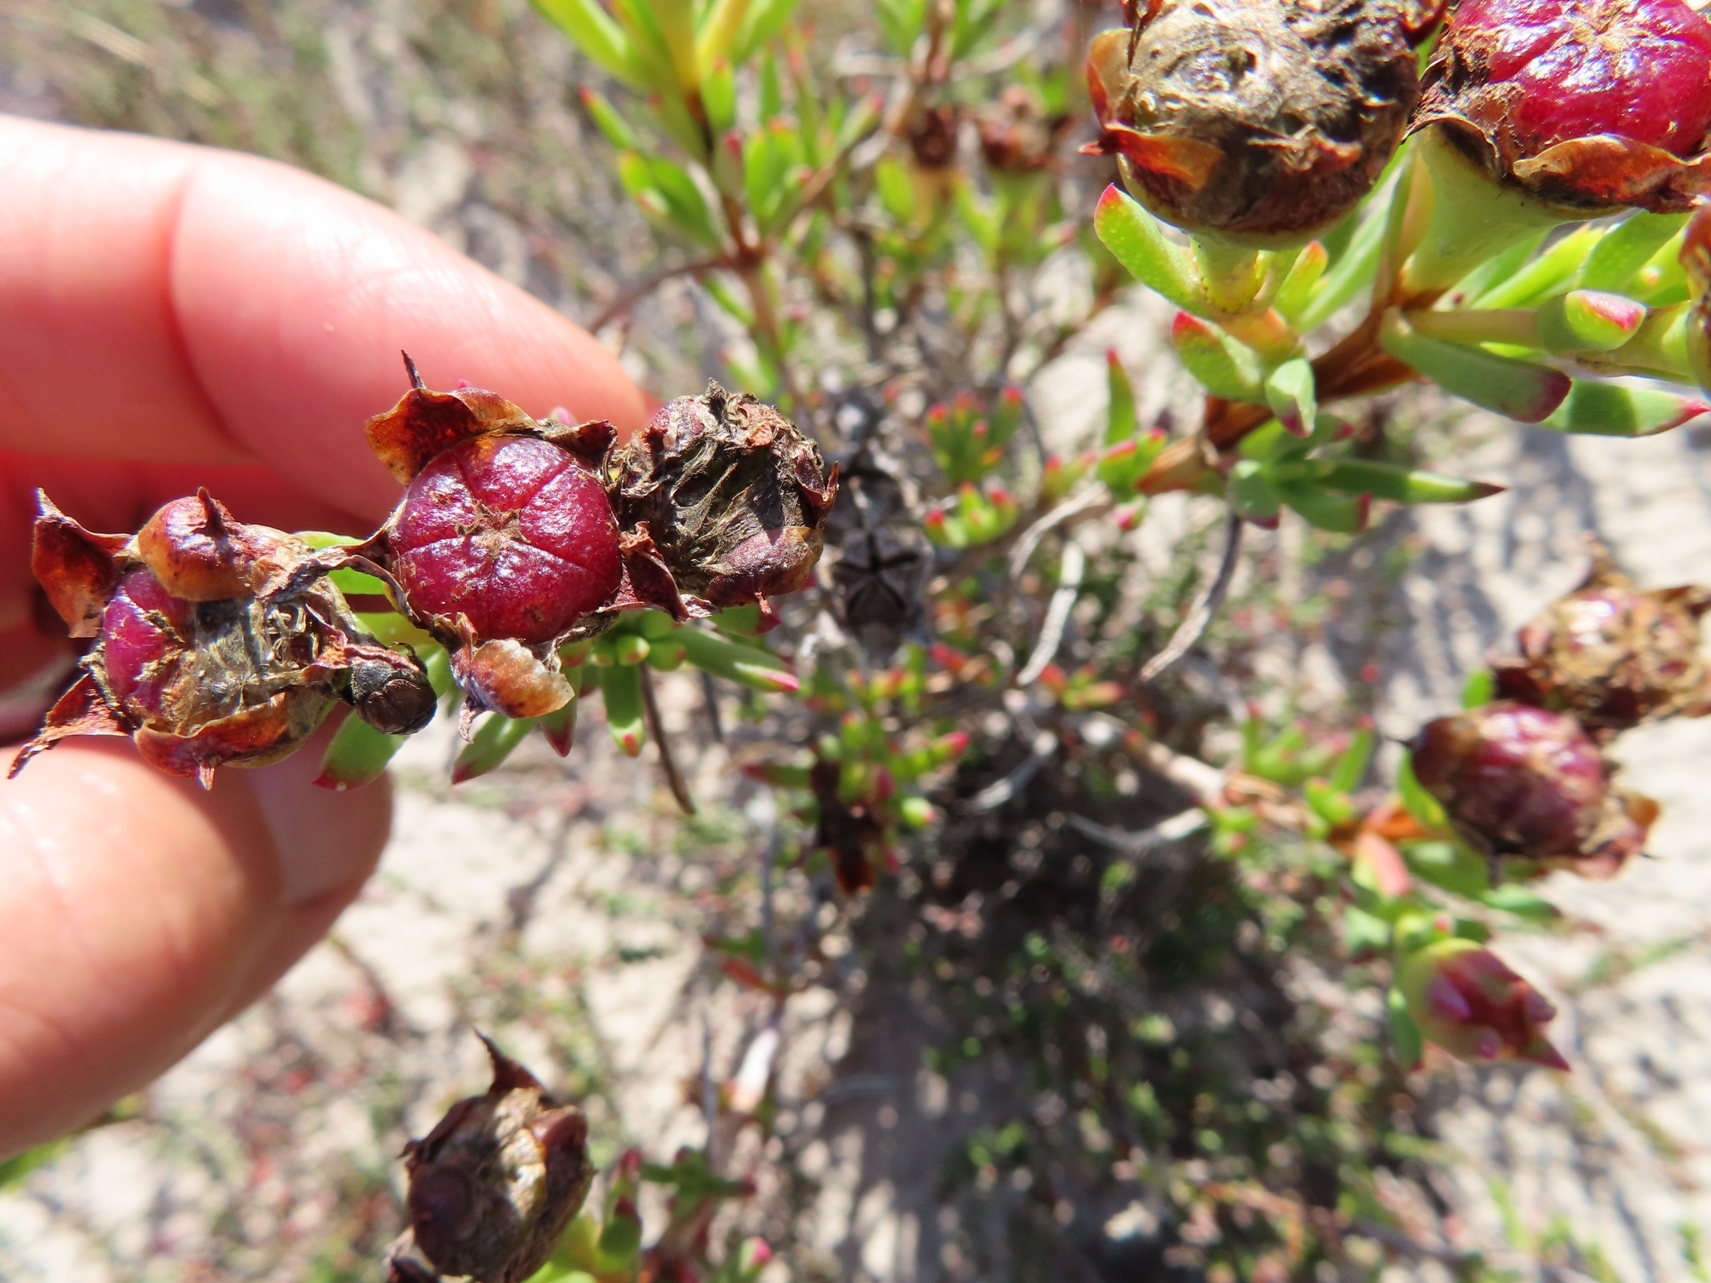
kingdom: Plantae
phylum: Tracheophyta
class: Magnoliopsida
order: Caryophyllales
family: Aizoaceae
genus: Lampranthus
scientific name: Lampranthus fergusoniae
